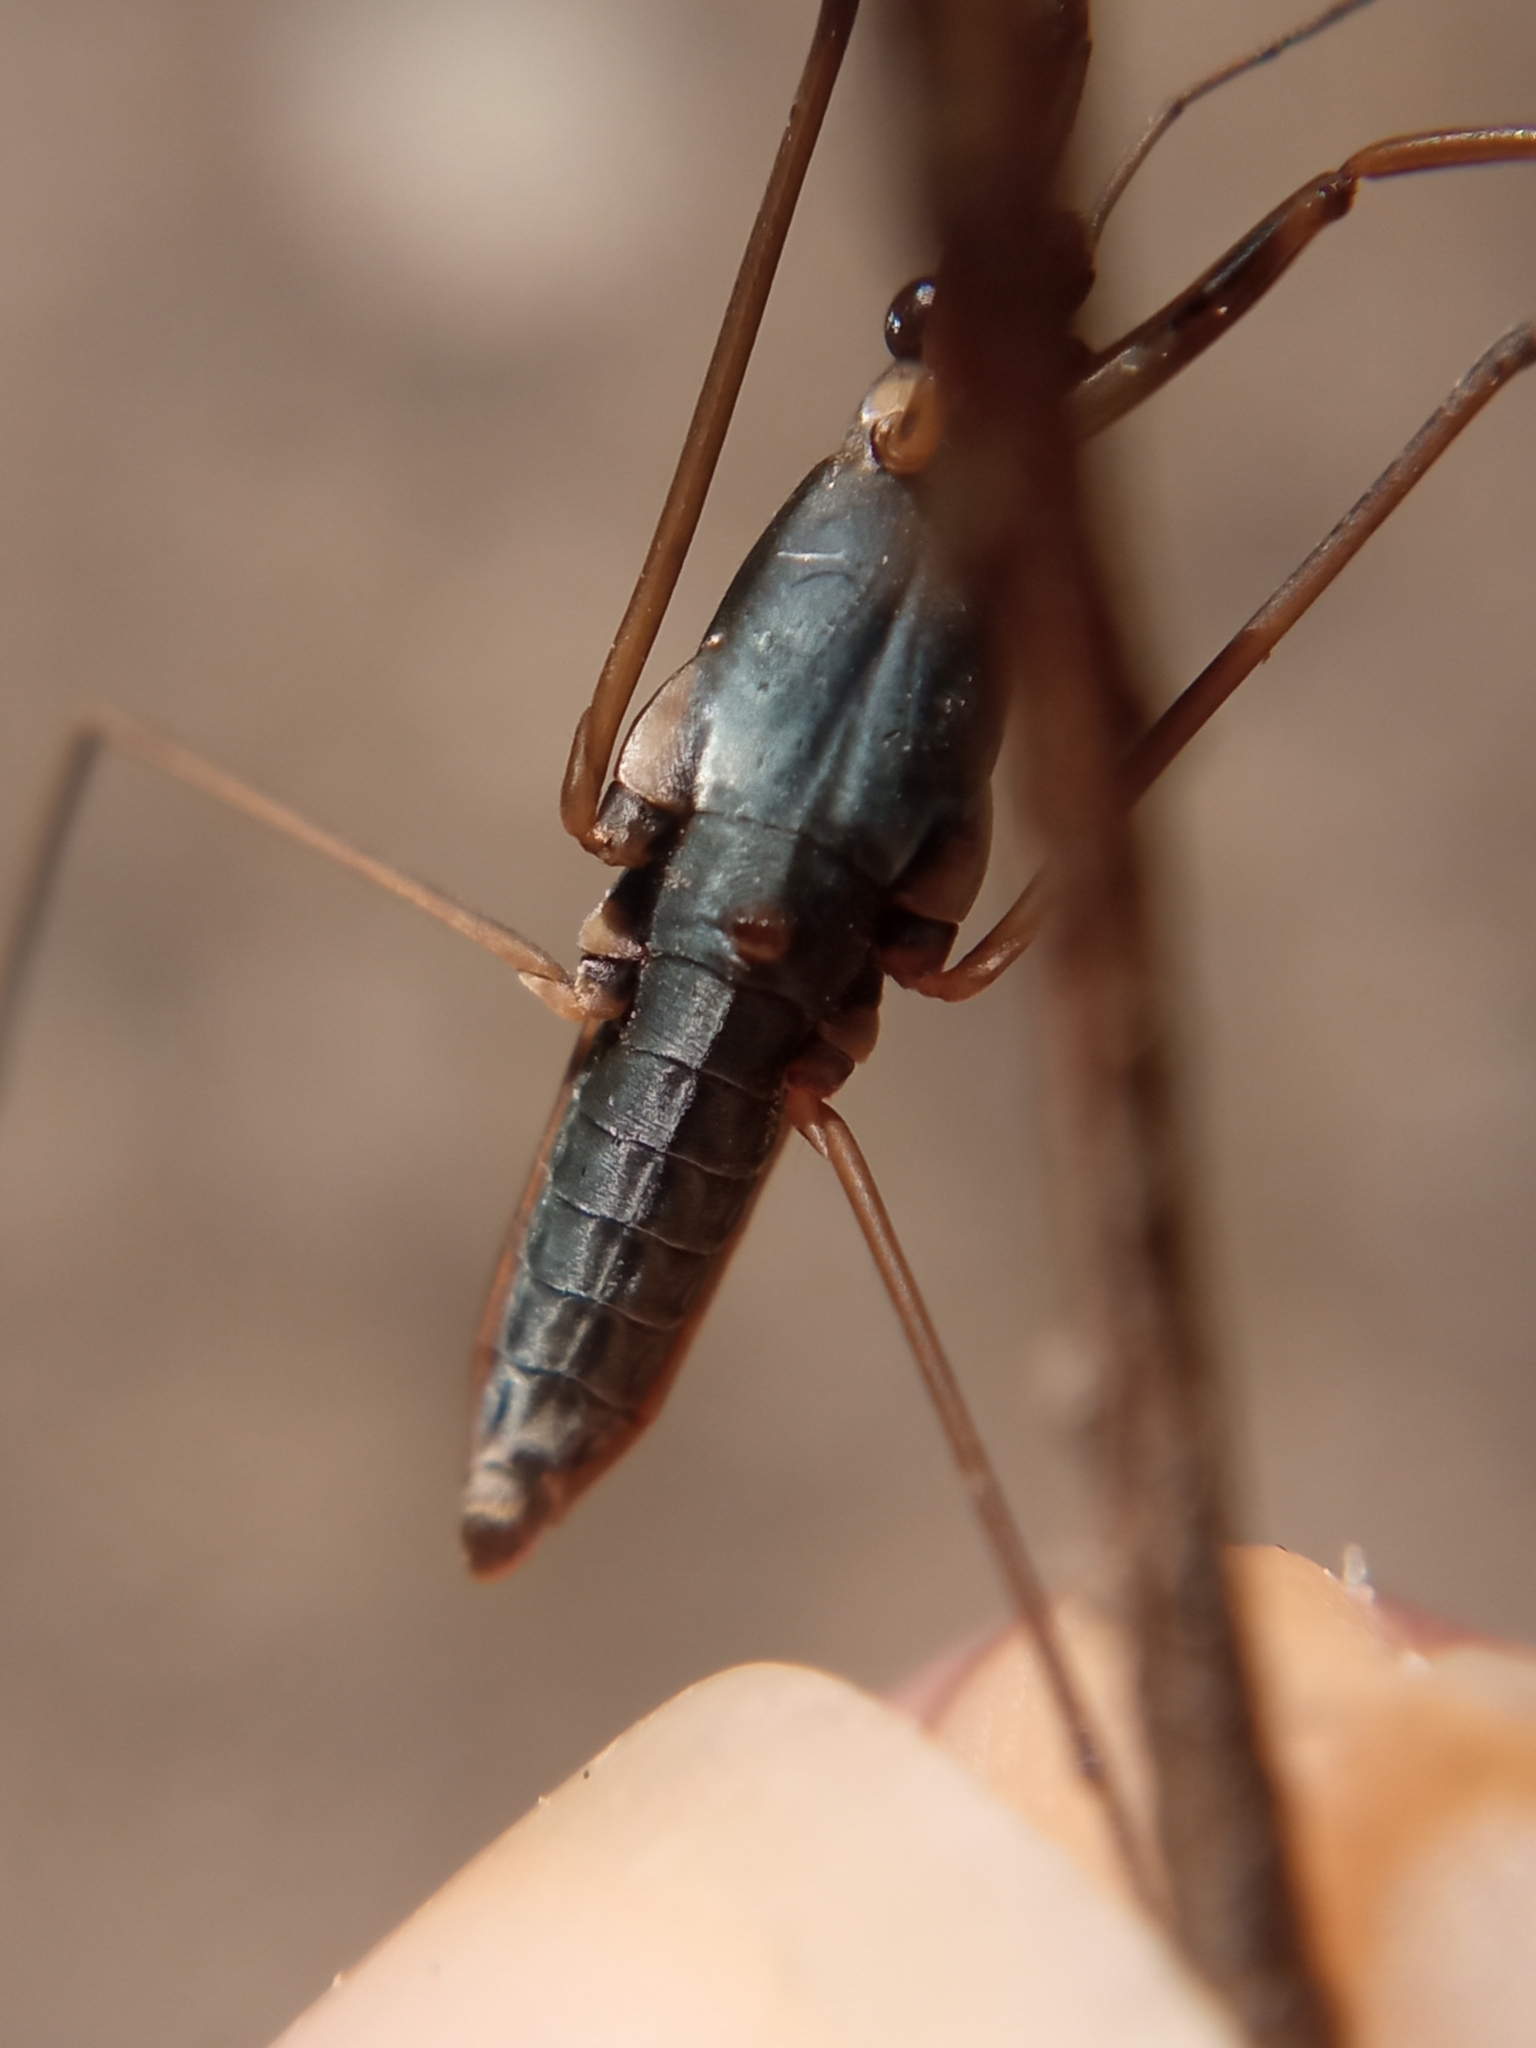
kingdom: Animalia
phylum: Arthropoda
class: Insecta
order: Hemiptera
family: Gerridae
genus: Gerris
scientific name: Gerris gibbifer
